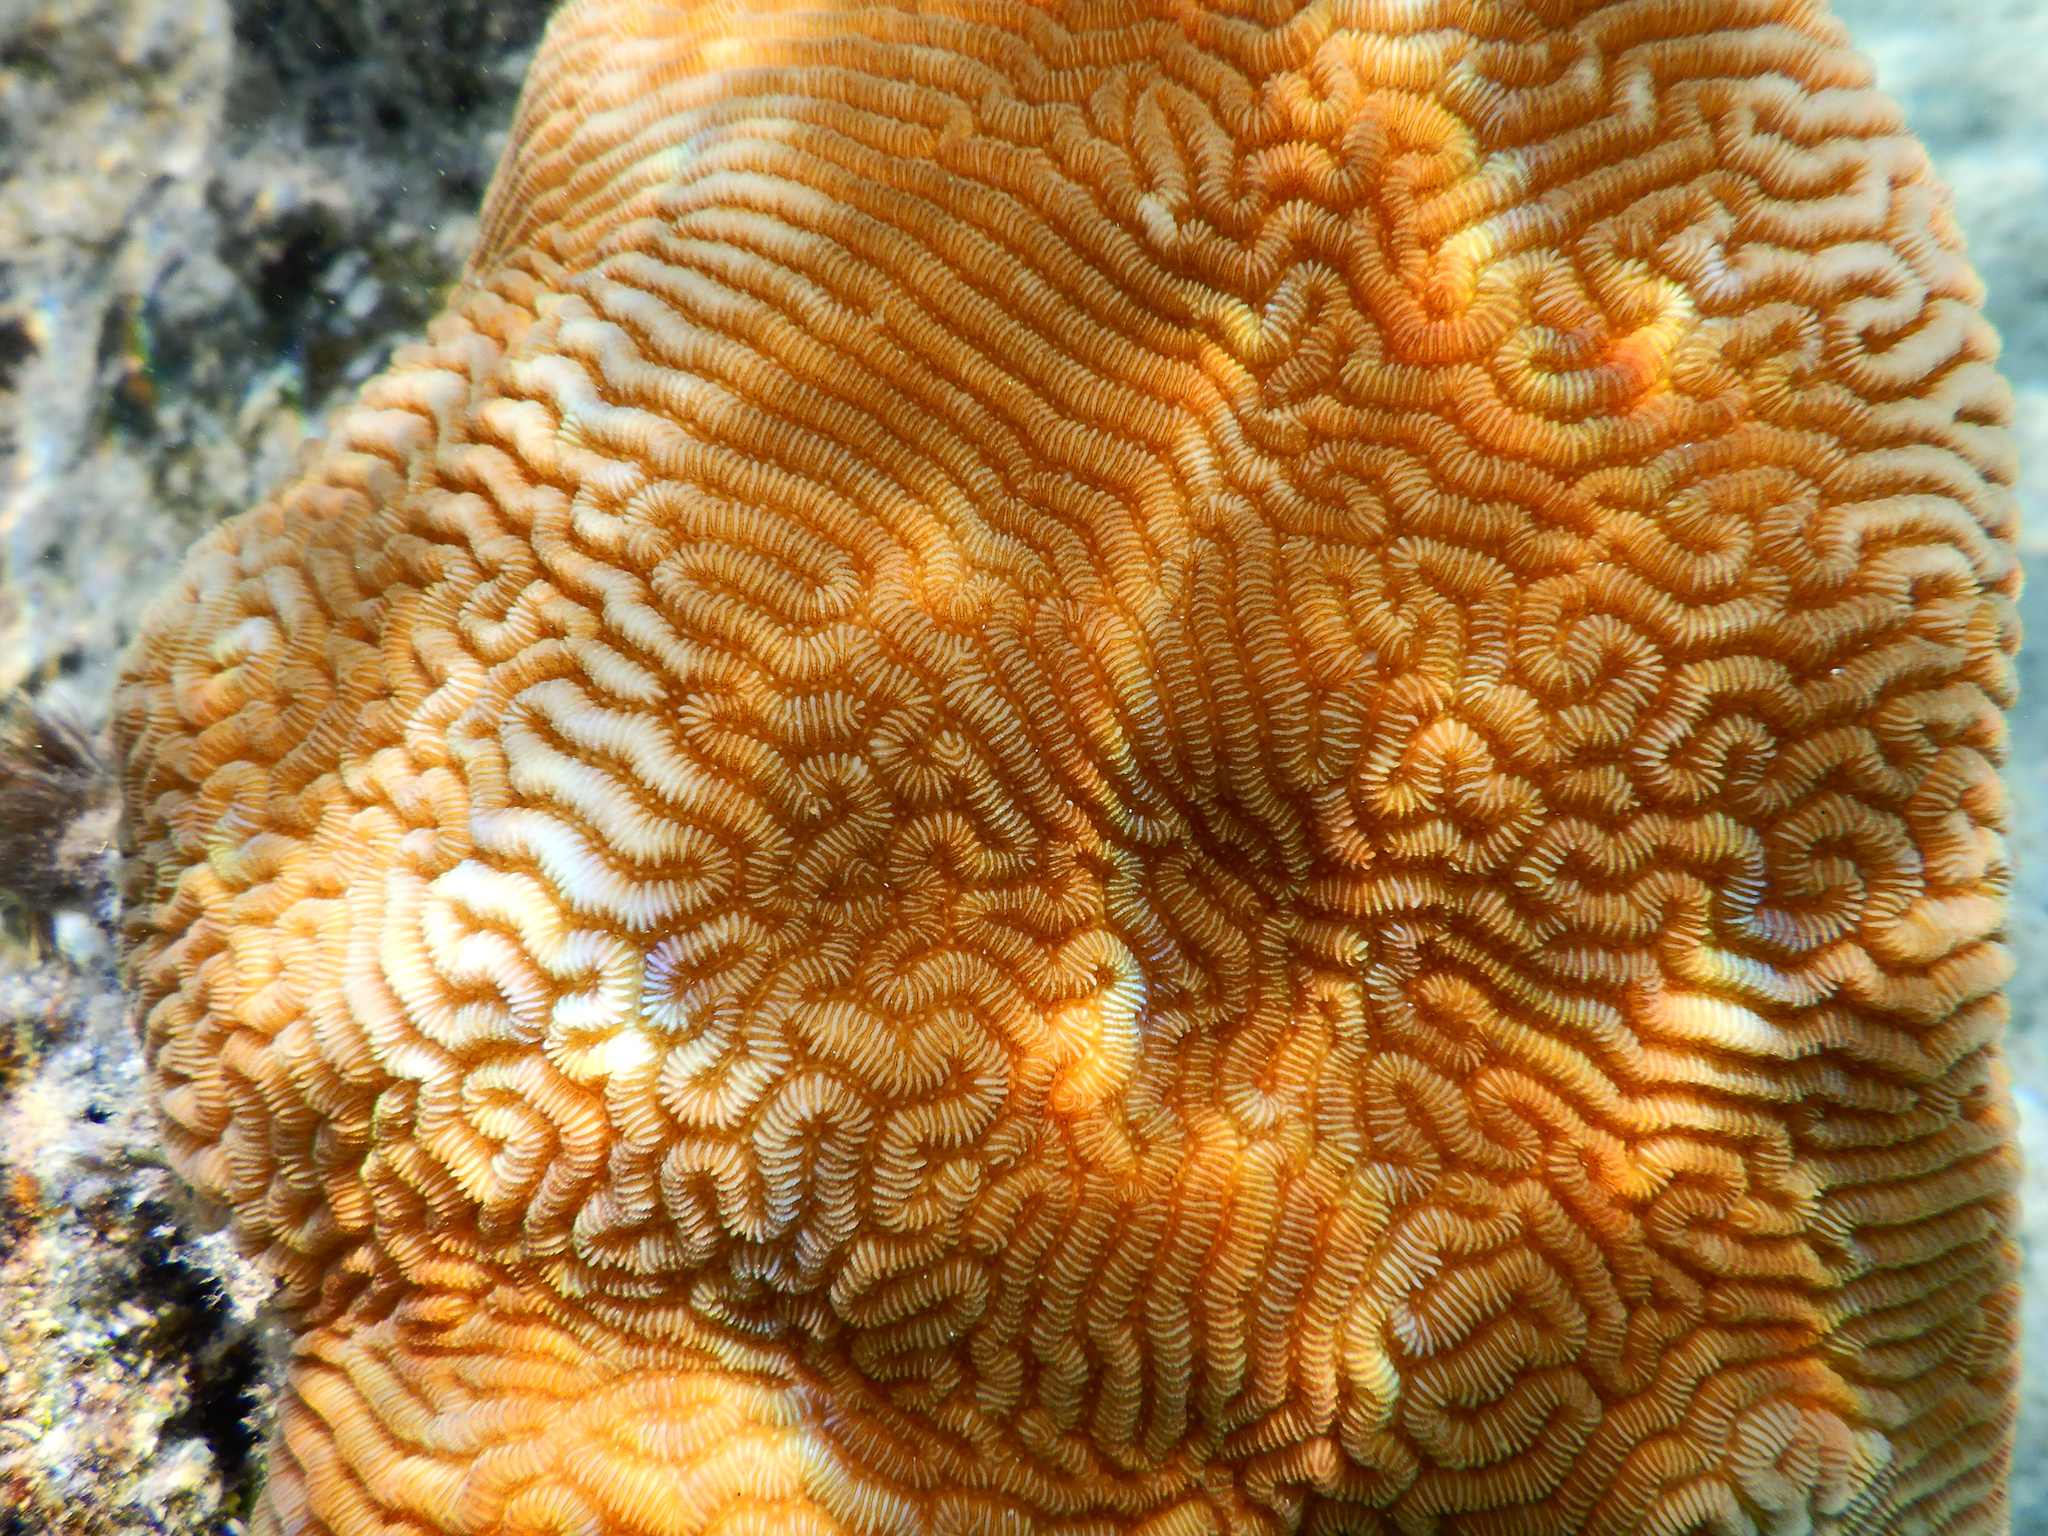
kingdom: Animalia
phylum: Cnidaria
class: Anthozoa
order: Scleractinia
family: Merulinidae
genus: Leptoria
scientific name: Leptoria phrygia
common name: Least valley coral
